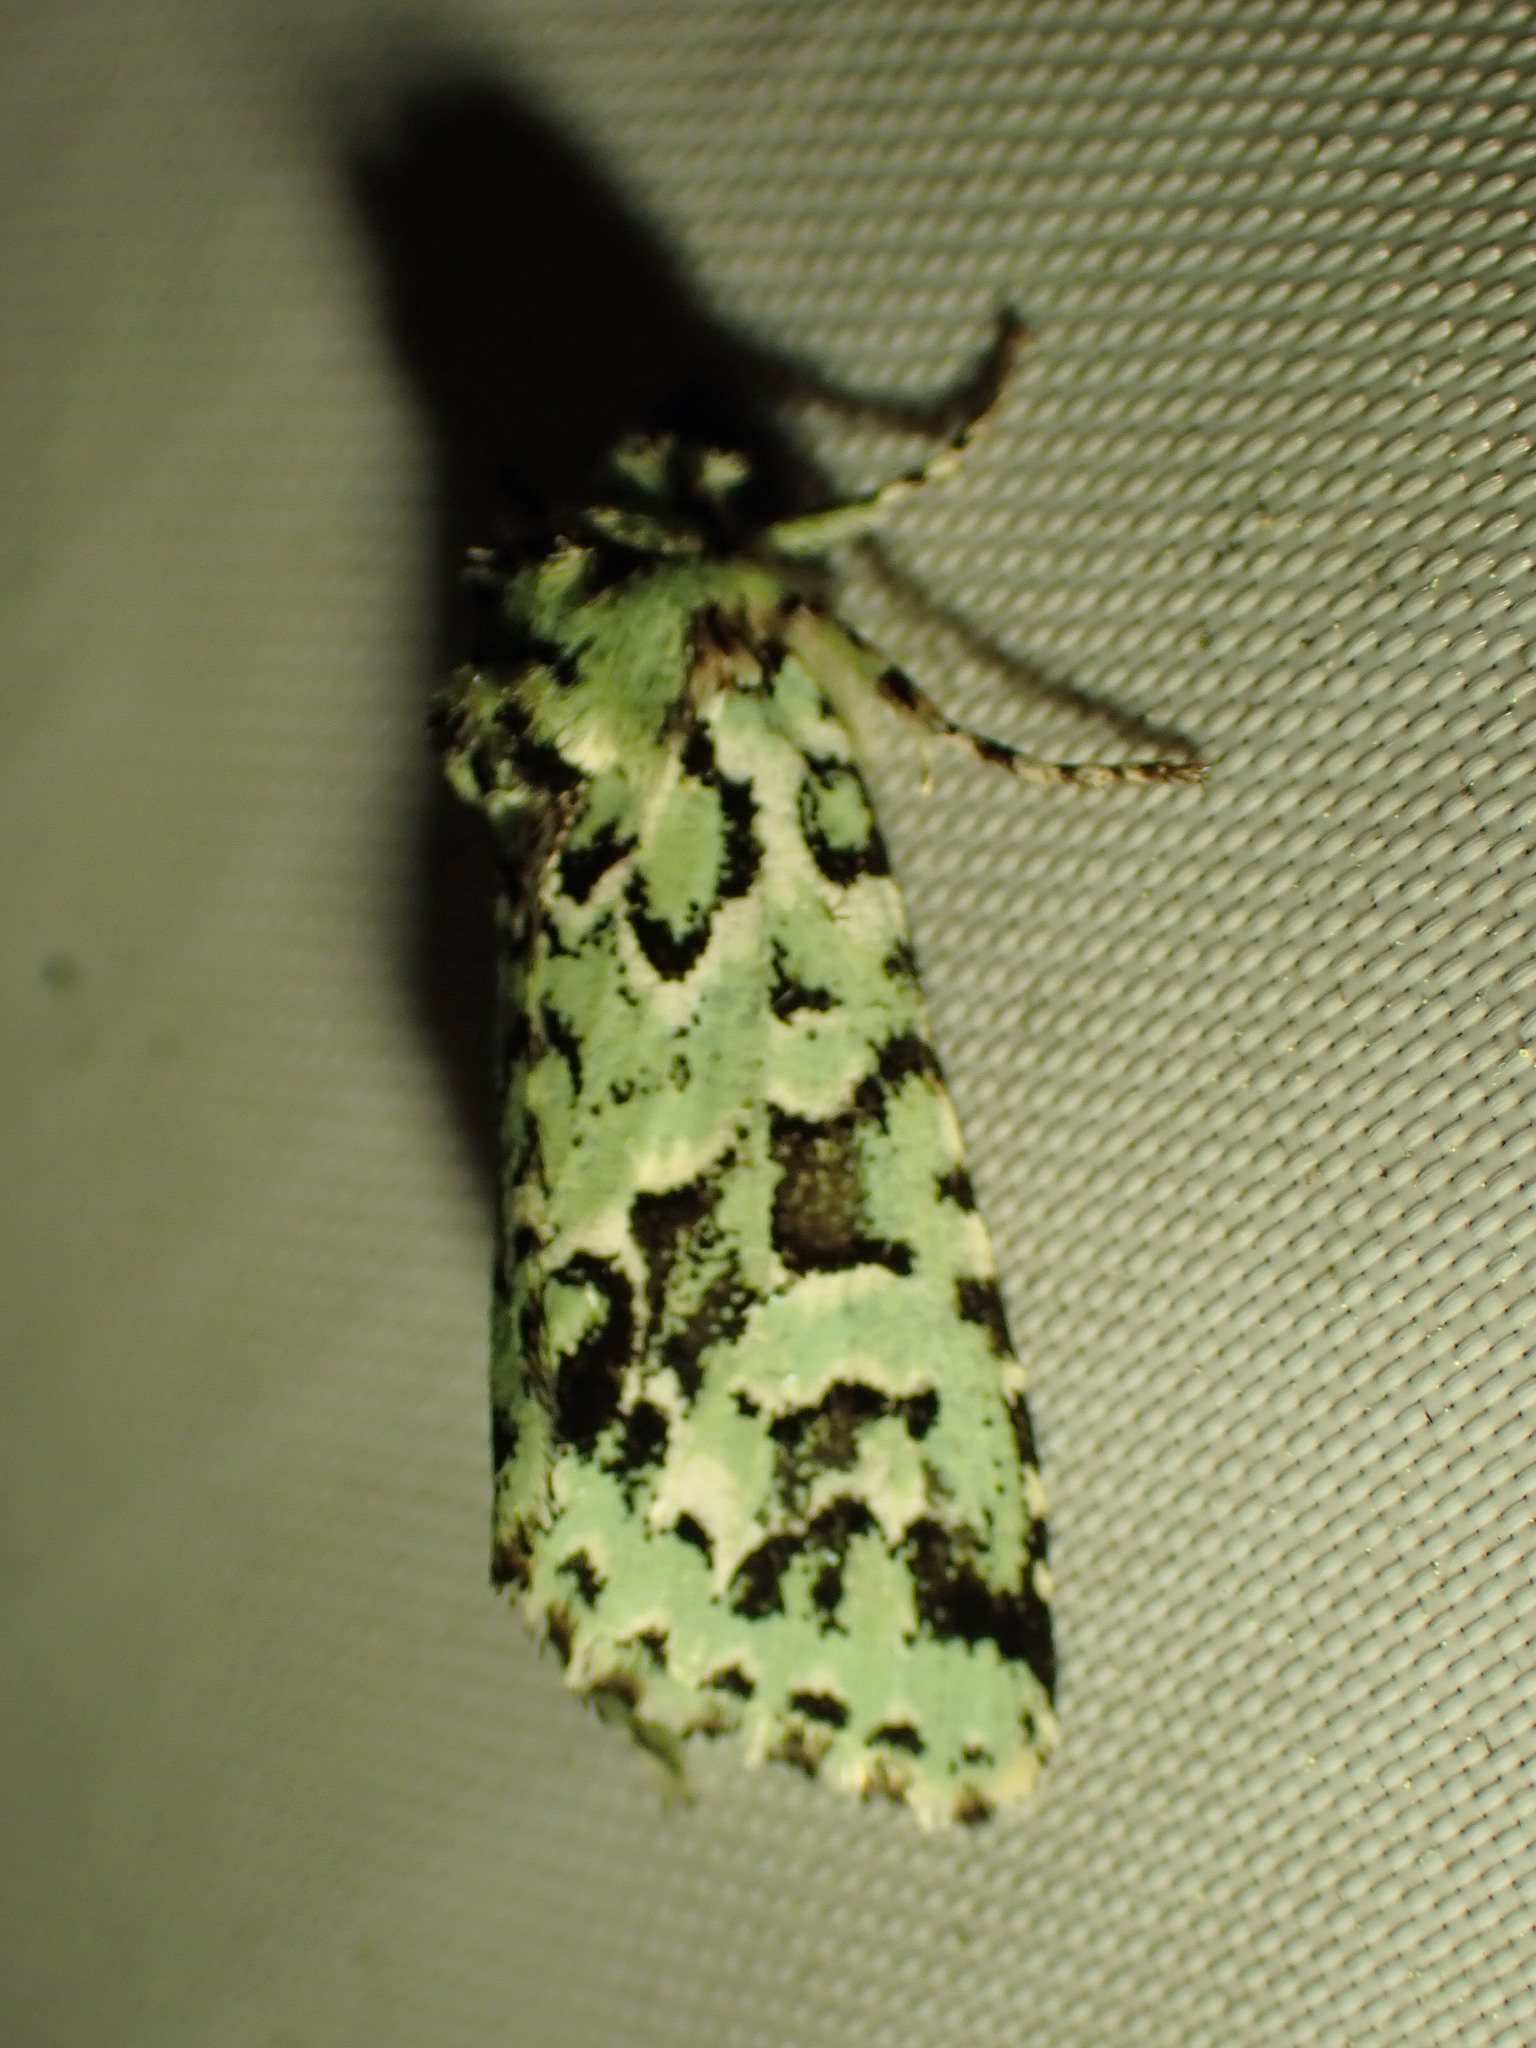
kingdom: Animalia
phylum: Arthropoda
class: Insecta
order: Lepidoptera
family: Noctuidae
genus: Feralia
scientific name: Feralia comstocki
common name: Comstock's sallow
